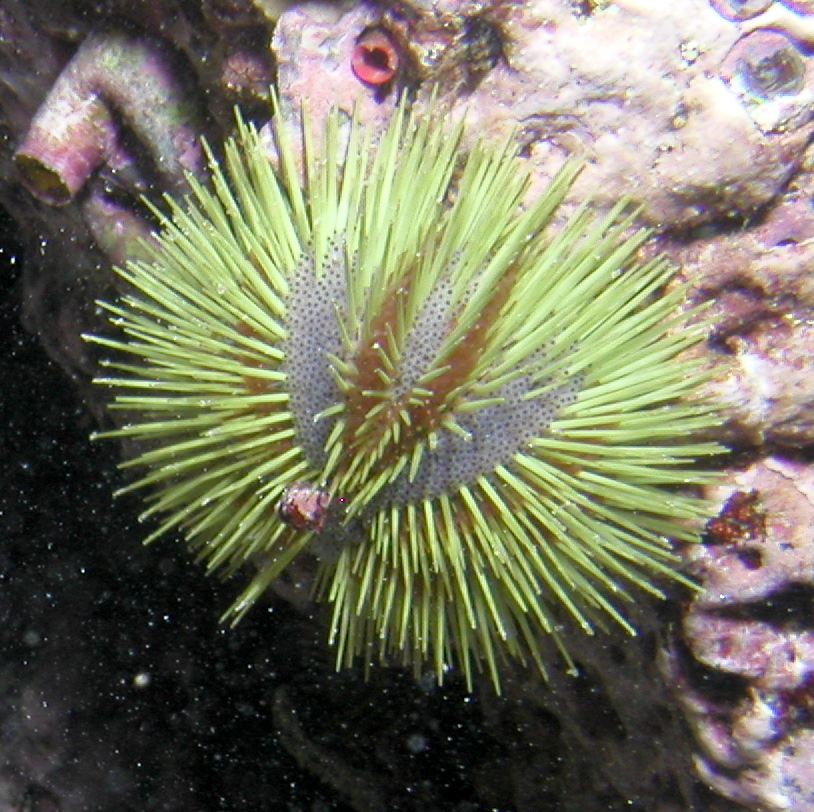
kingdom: Animalia
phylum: Echinodermata
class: Echinoidea
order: Camarodonta
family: Toxopneustidae
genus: Lytechinus
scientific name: Lytechinus semituberculatus
